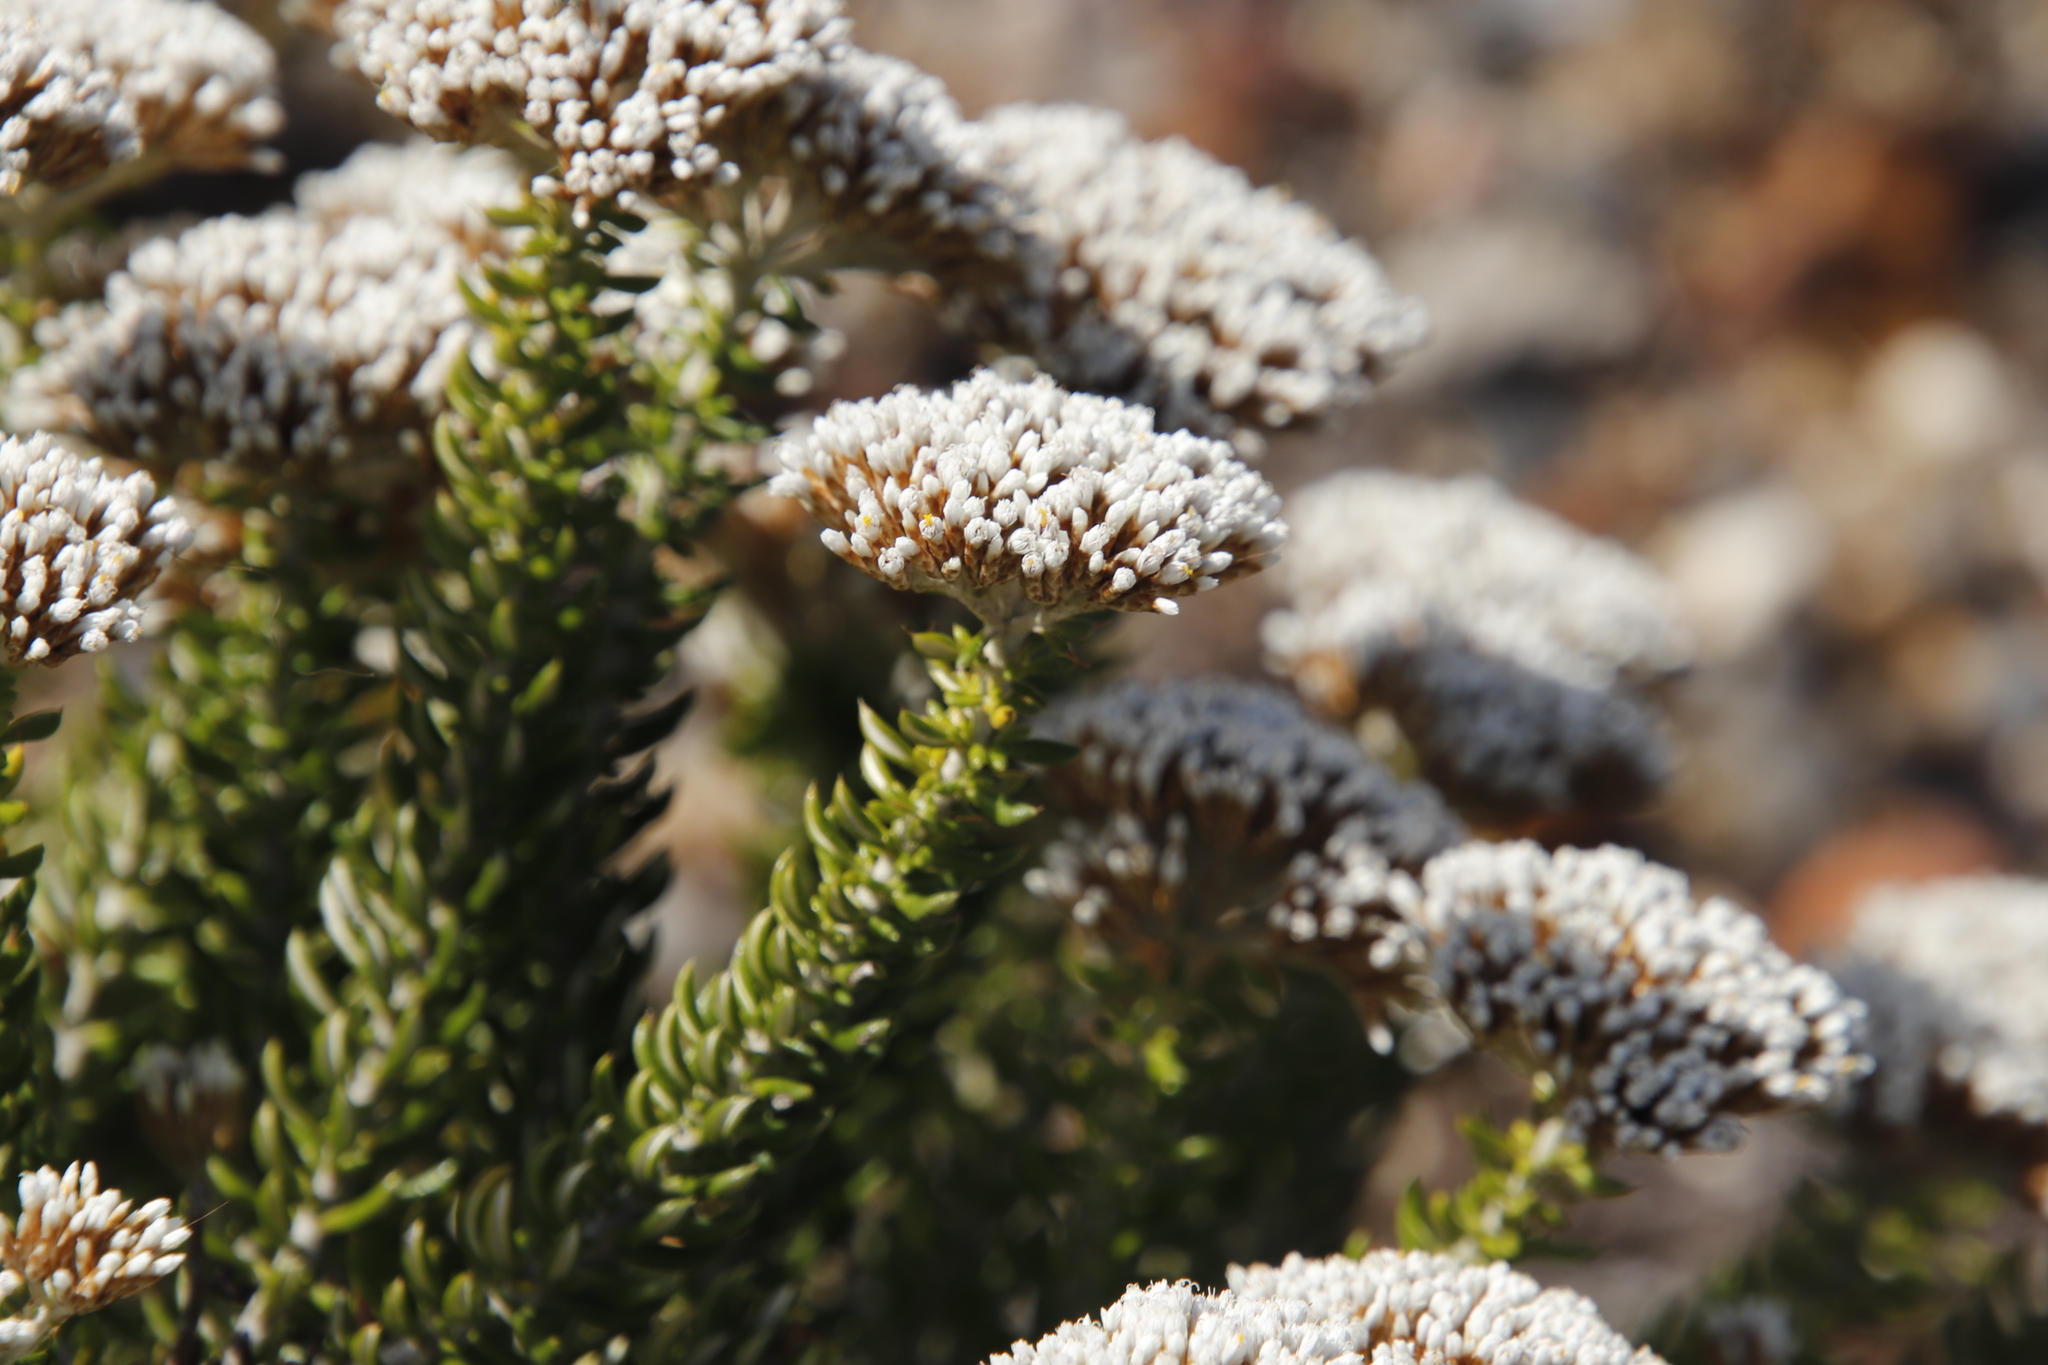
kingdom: Plantae
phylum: Tracheophyta
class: Magnoliopsida
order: Asterales
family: Asteraceae
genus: Metalasia
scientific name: Metalasia muricata
